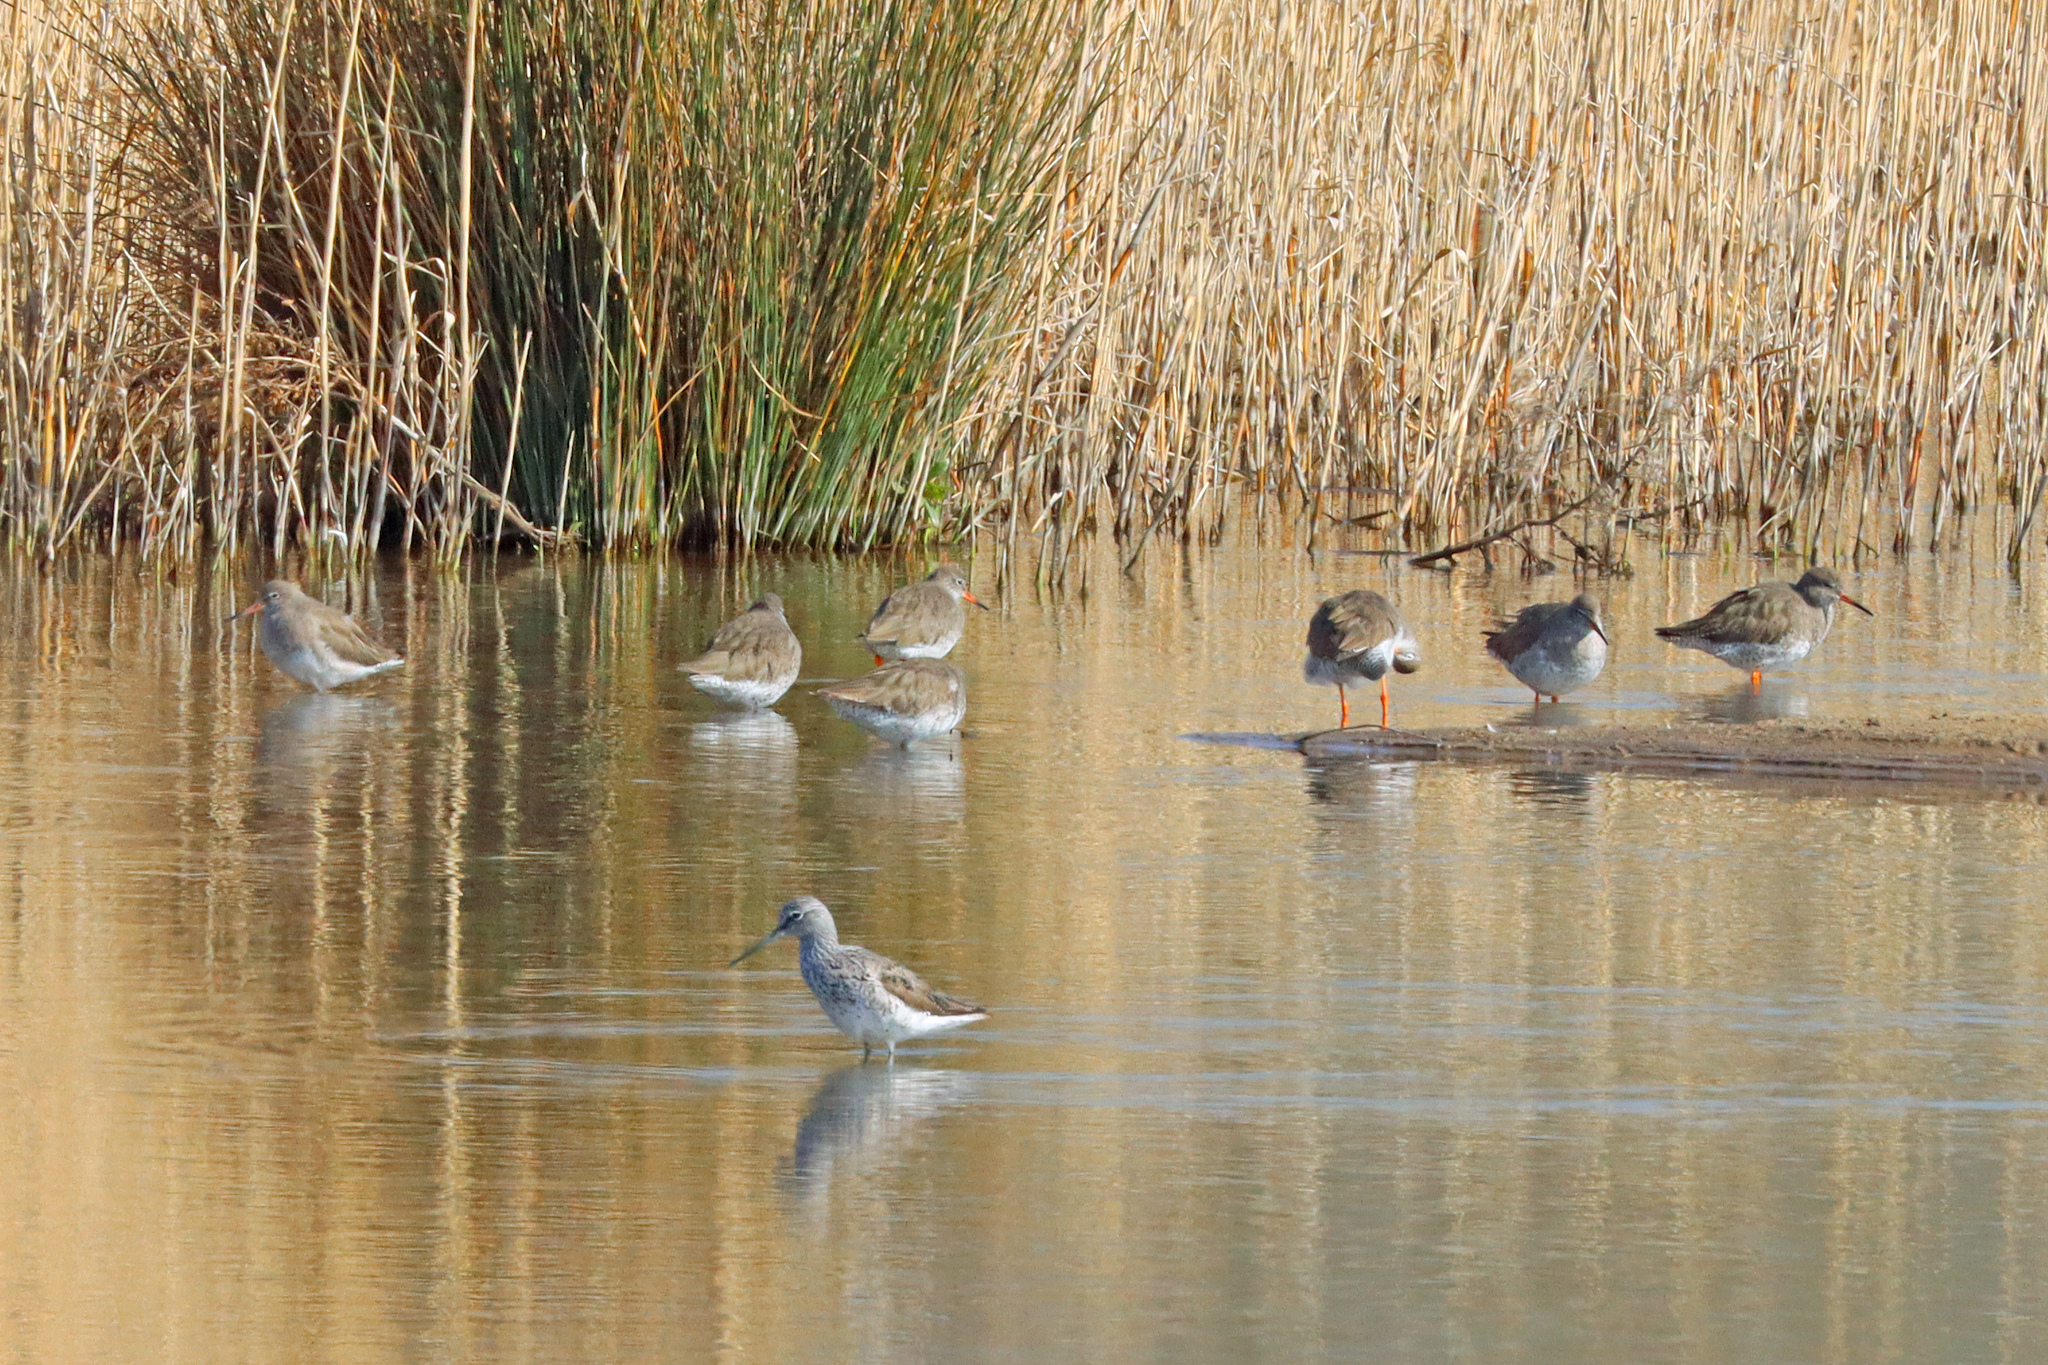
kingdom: Animalia
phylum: Chordata
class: Aves
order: Charadriiformes
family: Scolopacidae
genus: Tringa
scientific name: Tringa totanus
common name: Common redshank
